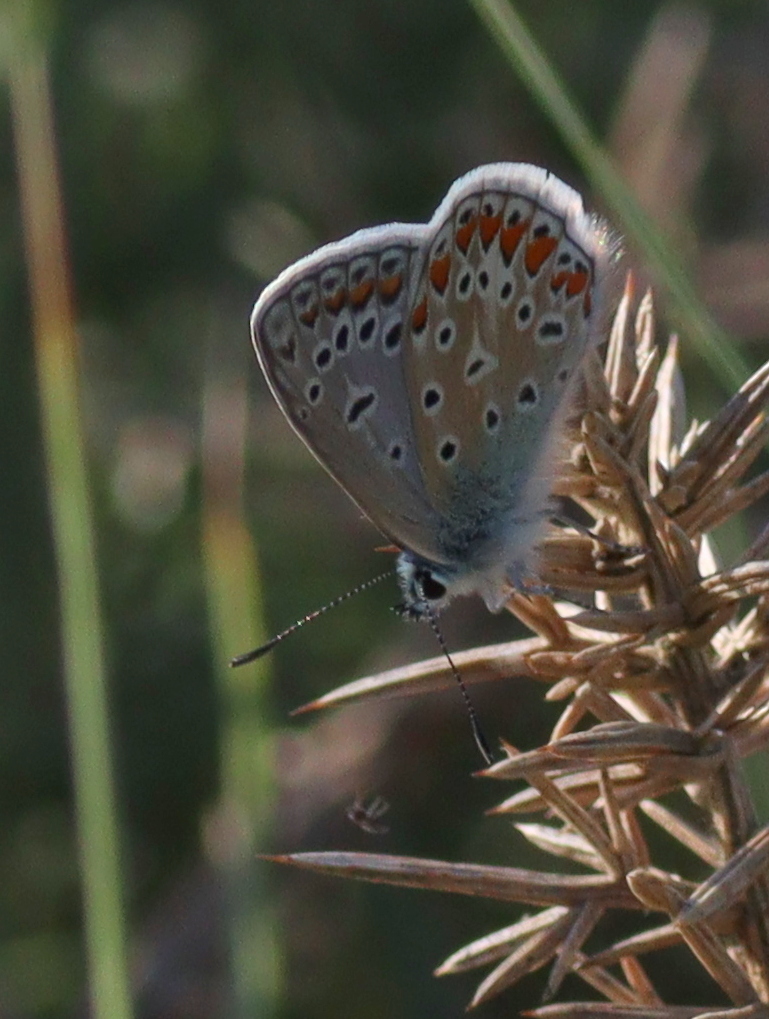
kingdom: Animalia
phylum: Arthropoda
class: Insecta
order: Lepidoptera
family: Lycaenidae
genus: Polyommatus
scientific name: Polyommatus icarus
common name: Common blue
